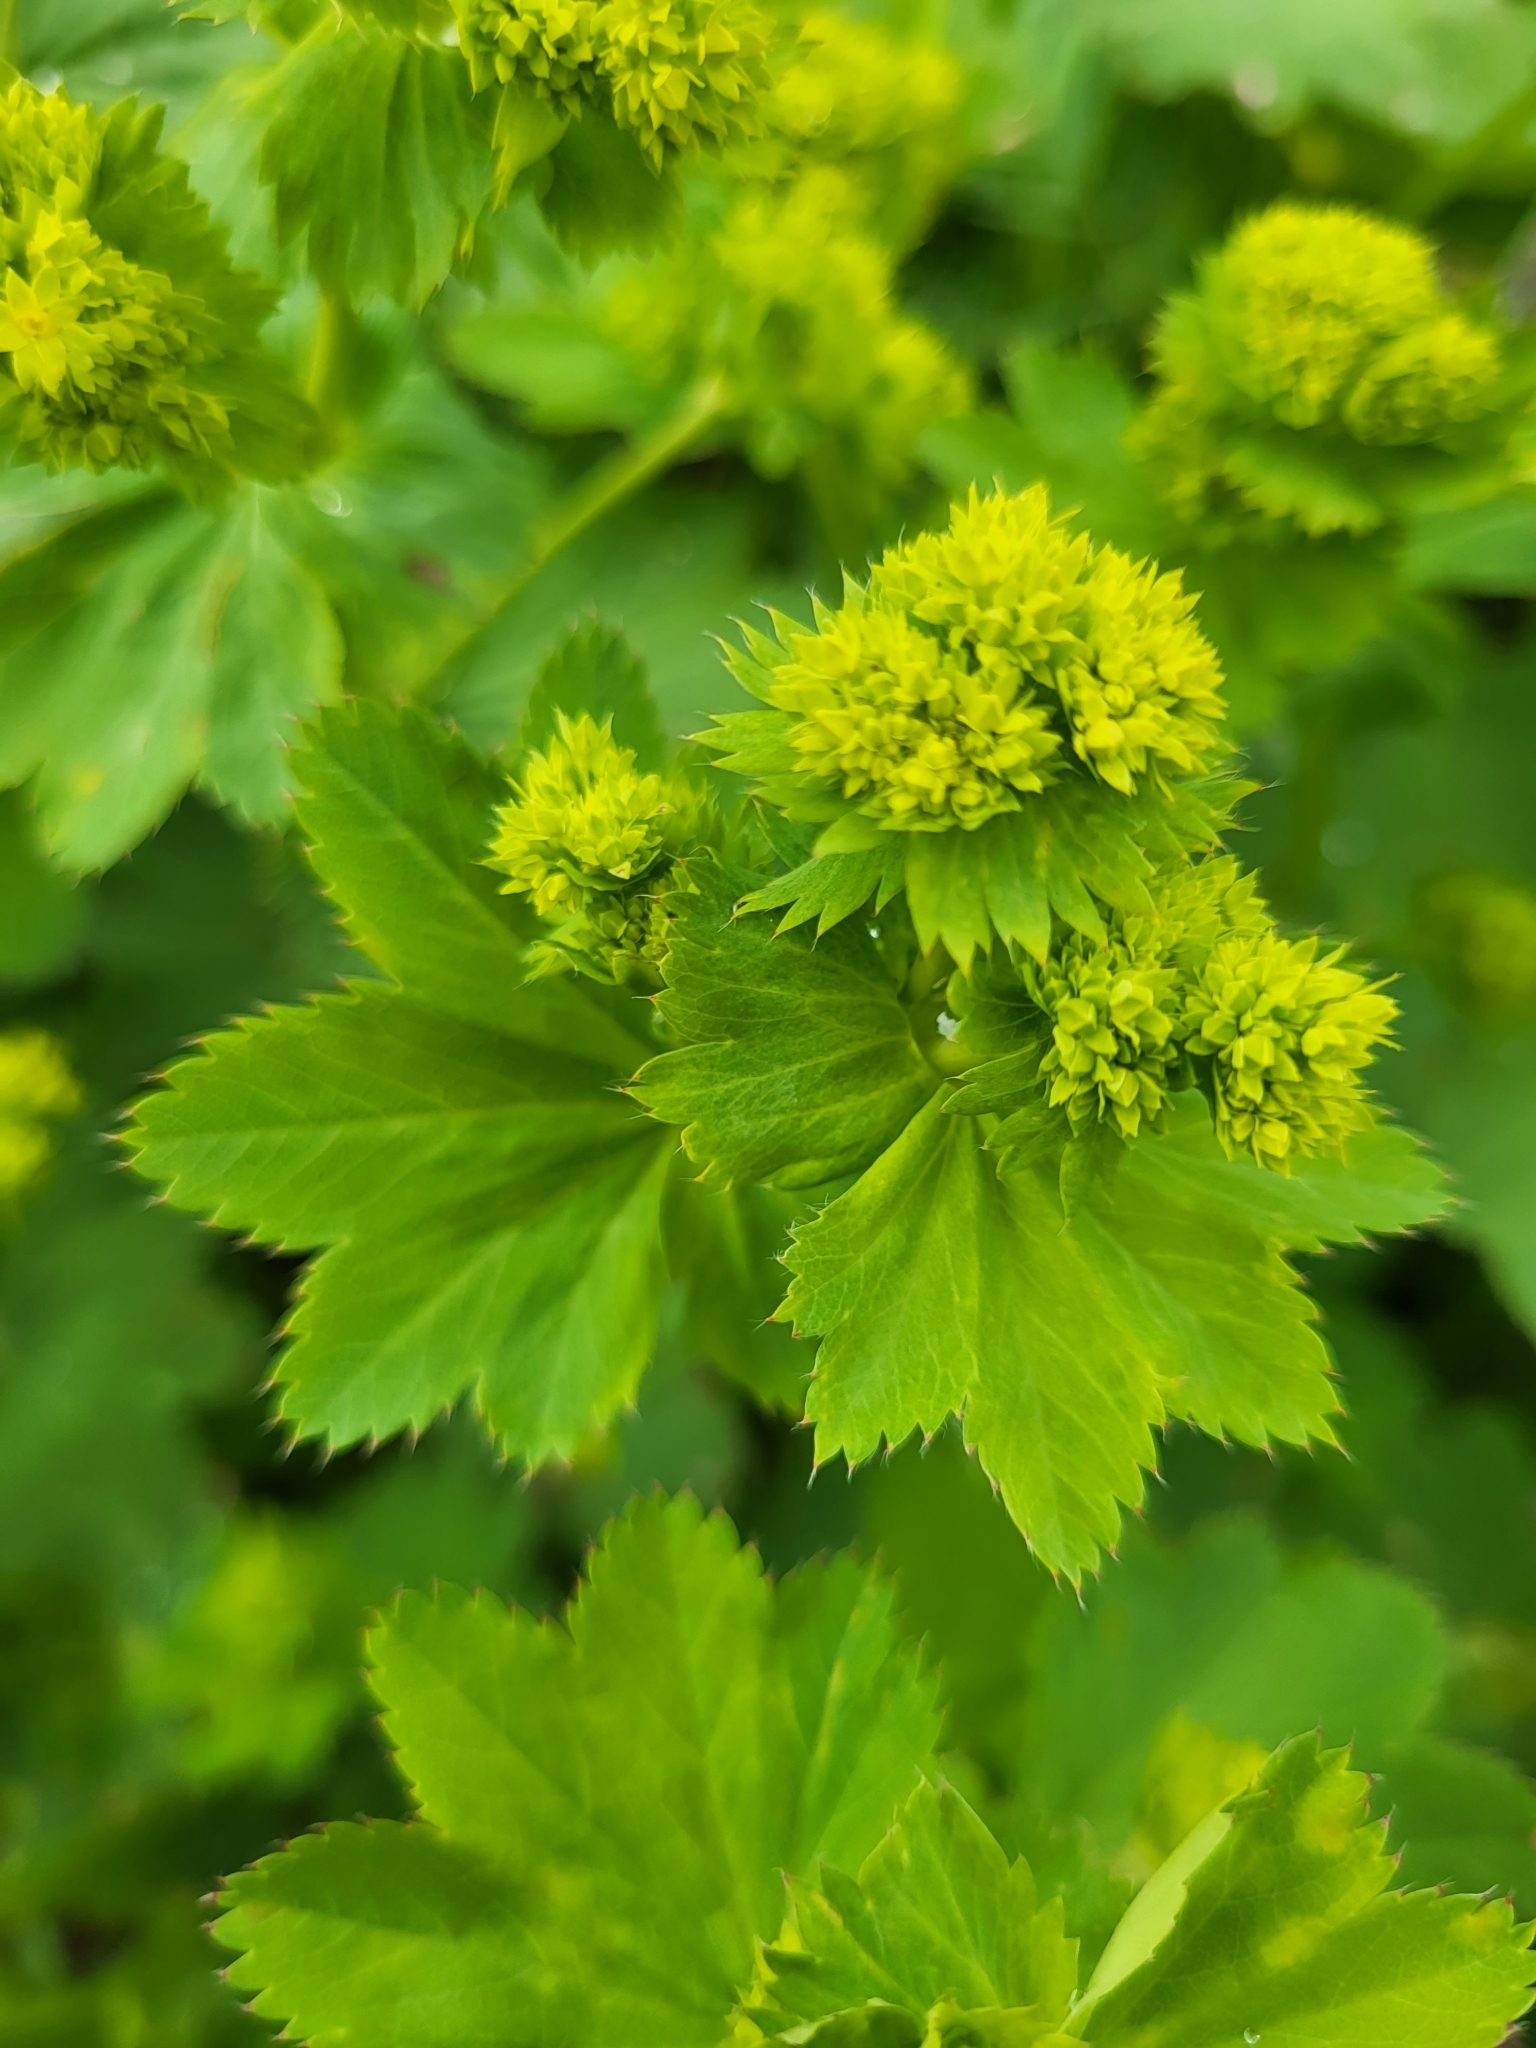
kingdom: Plantae
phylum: Tracheophyta
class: Magnoliopsida
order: Rosales
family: Rosaceae
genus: Alchemilla
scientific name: Alchemilla caucasica
